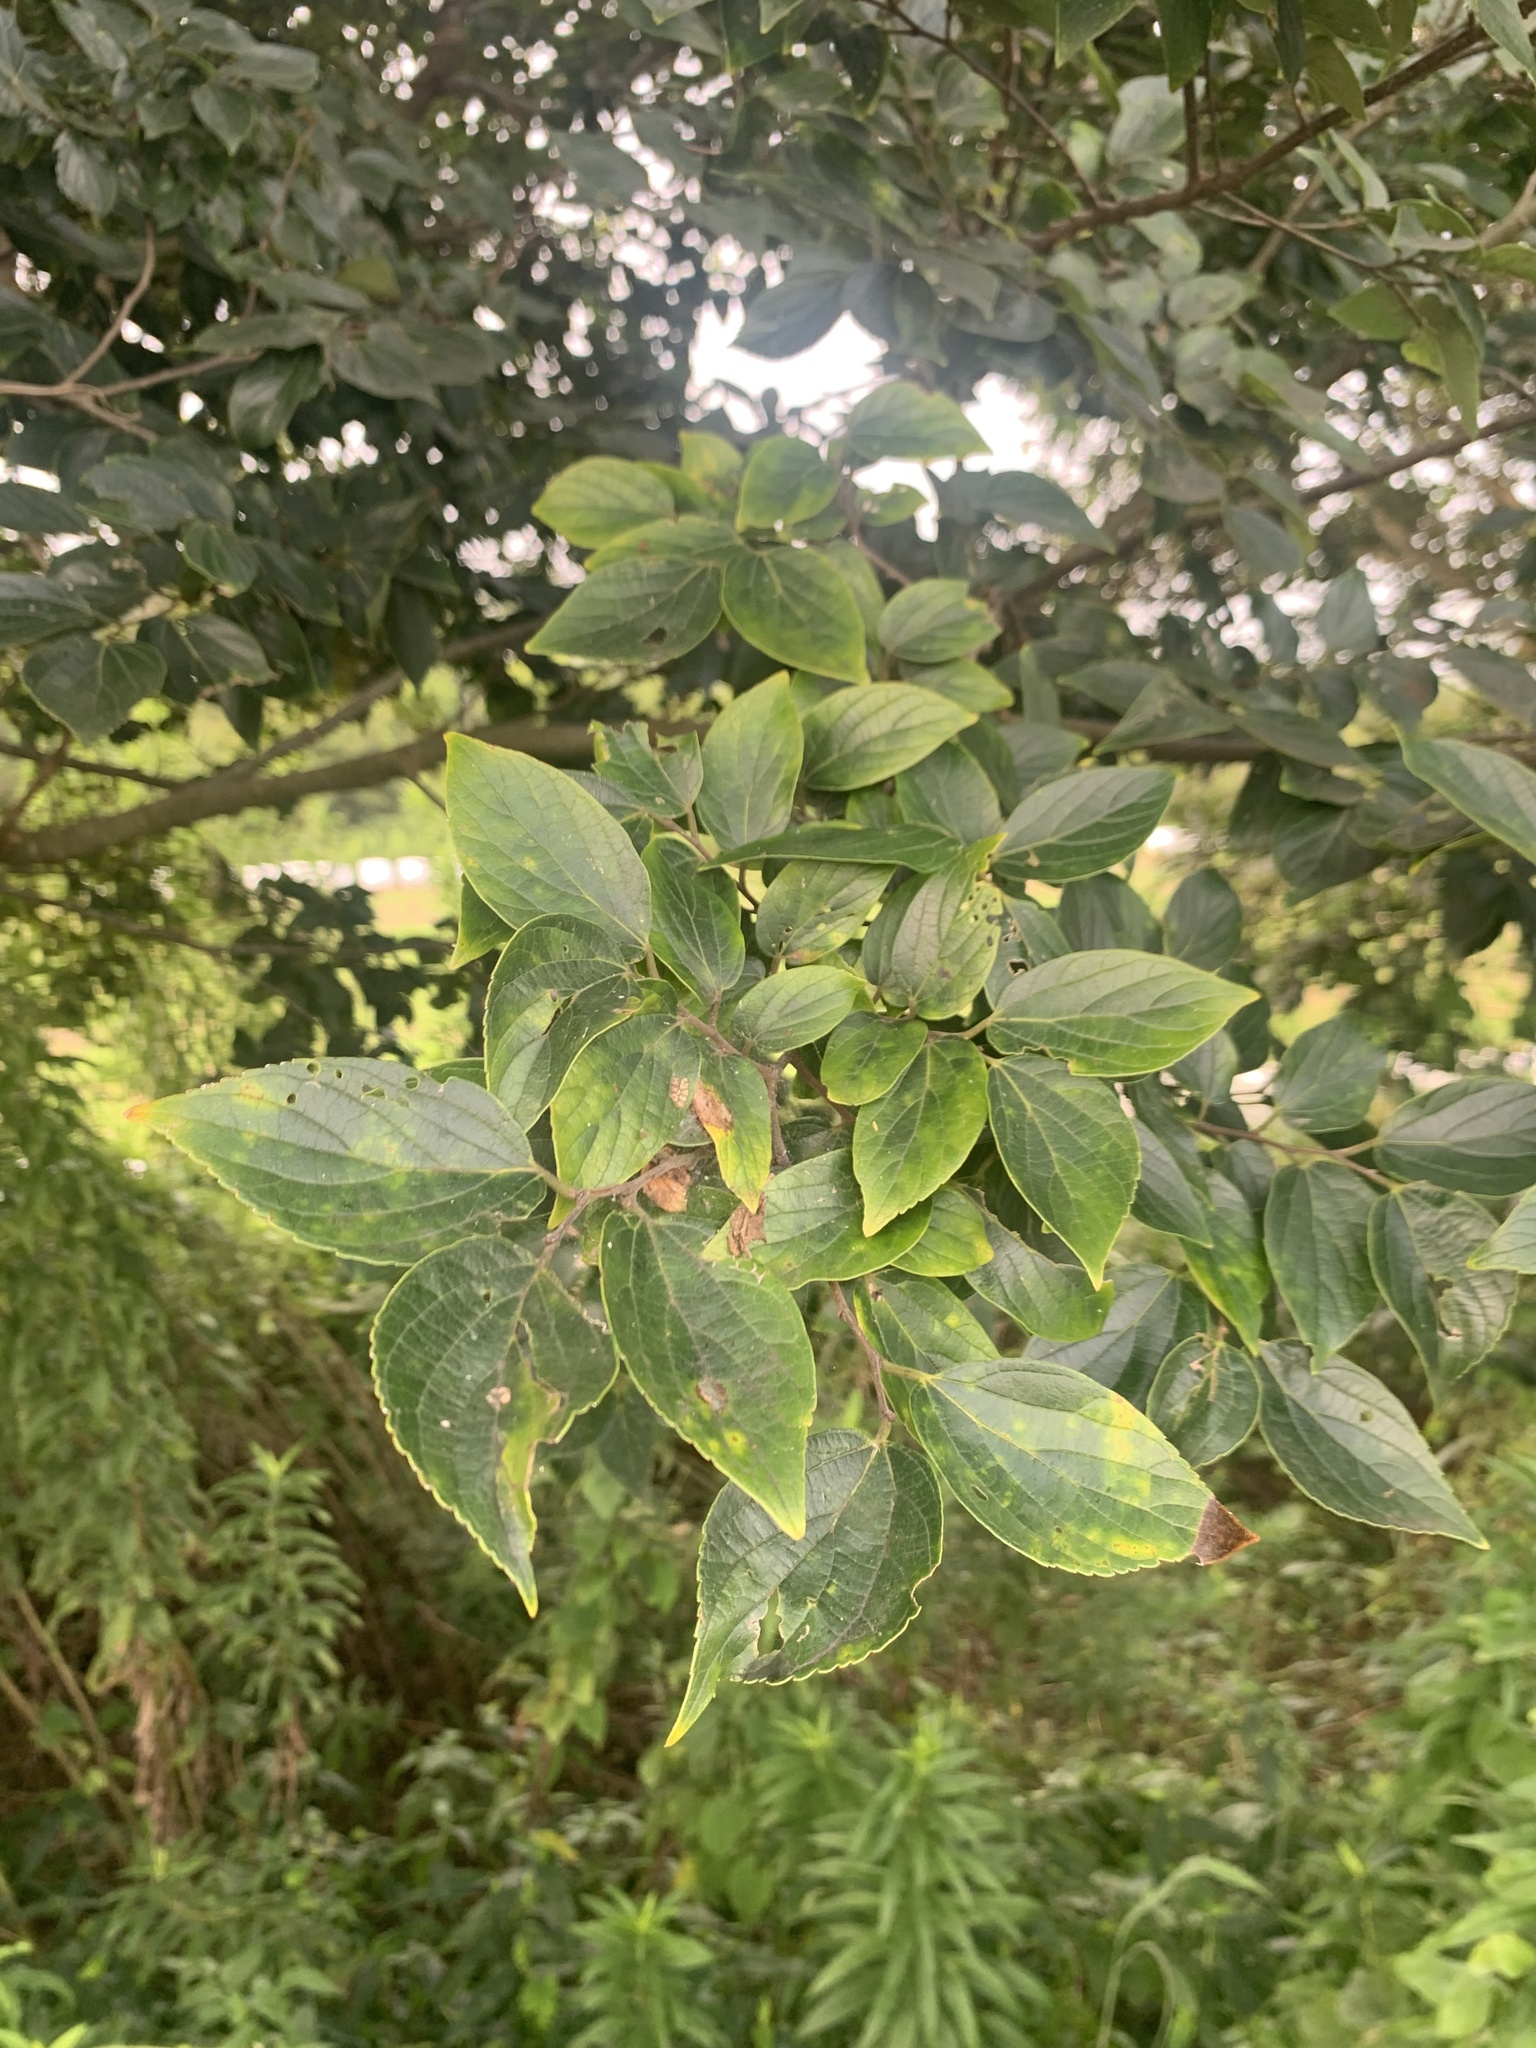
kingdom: Plantae
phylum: Tracheophyta
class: Magnoliopsida
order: Rosales
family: Cannabaceae
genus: Celtis
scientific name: Celtis sinensis
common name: Chinese hackberry
